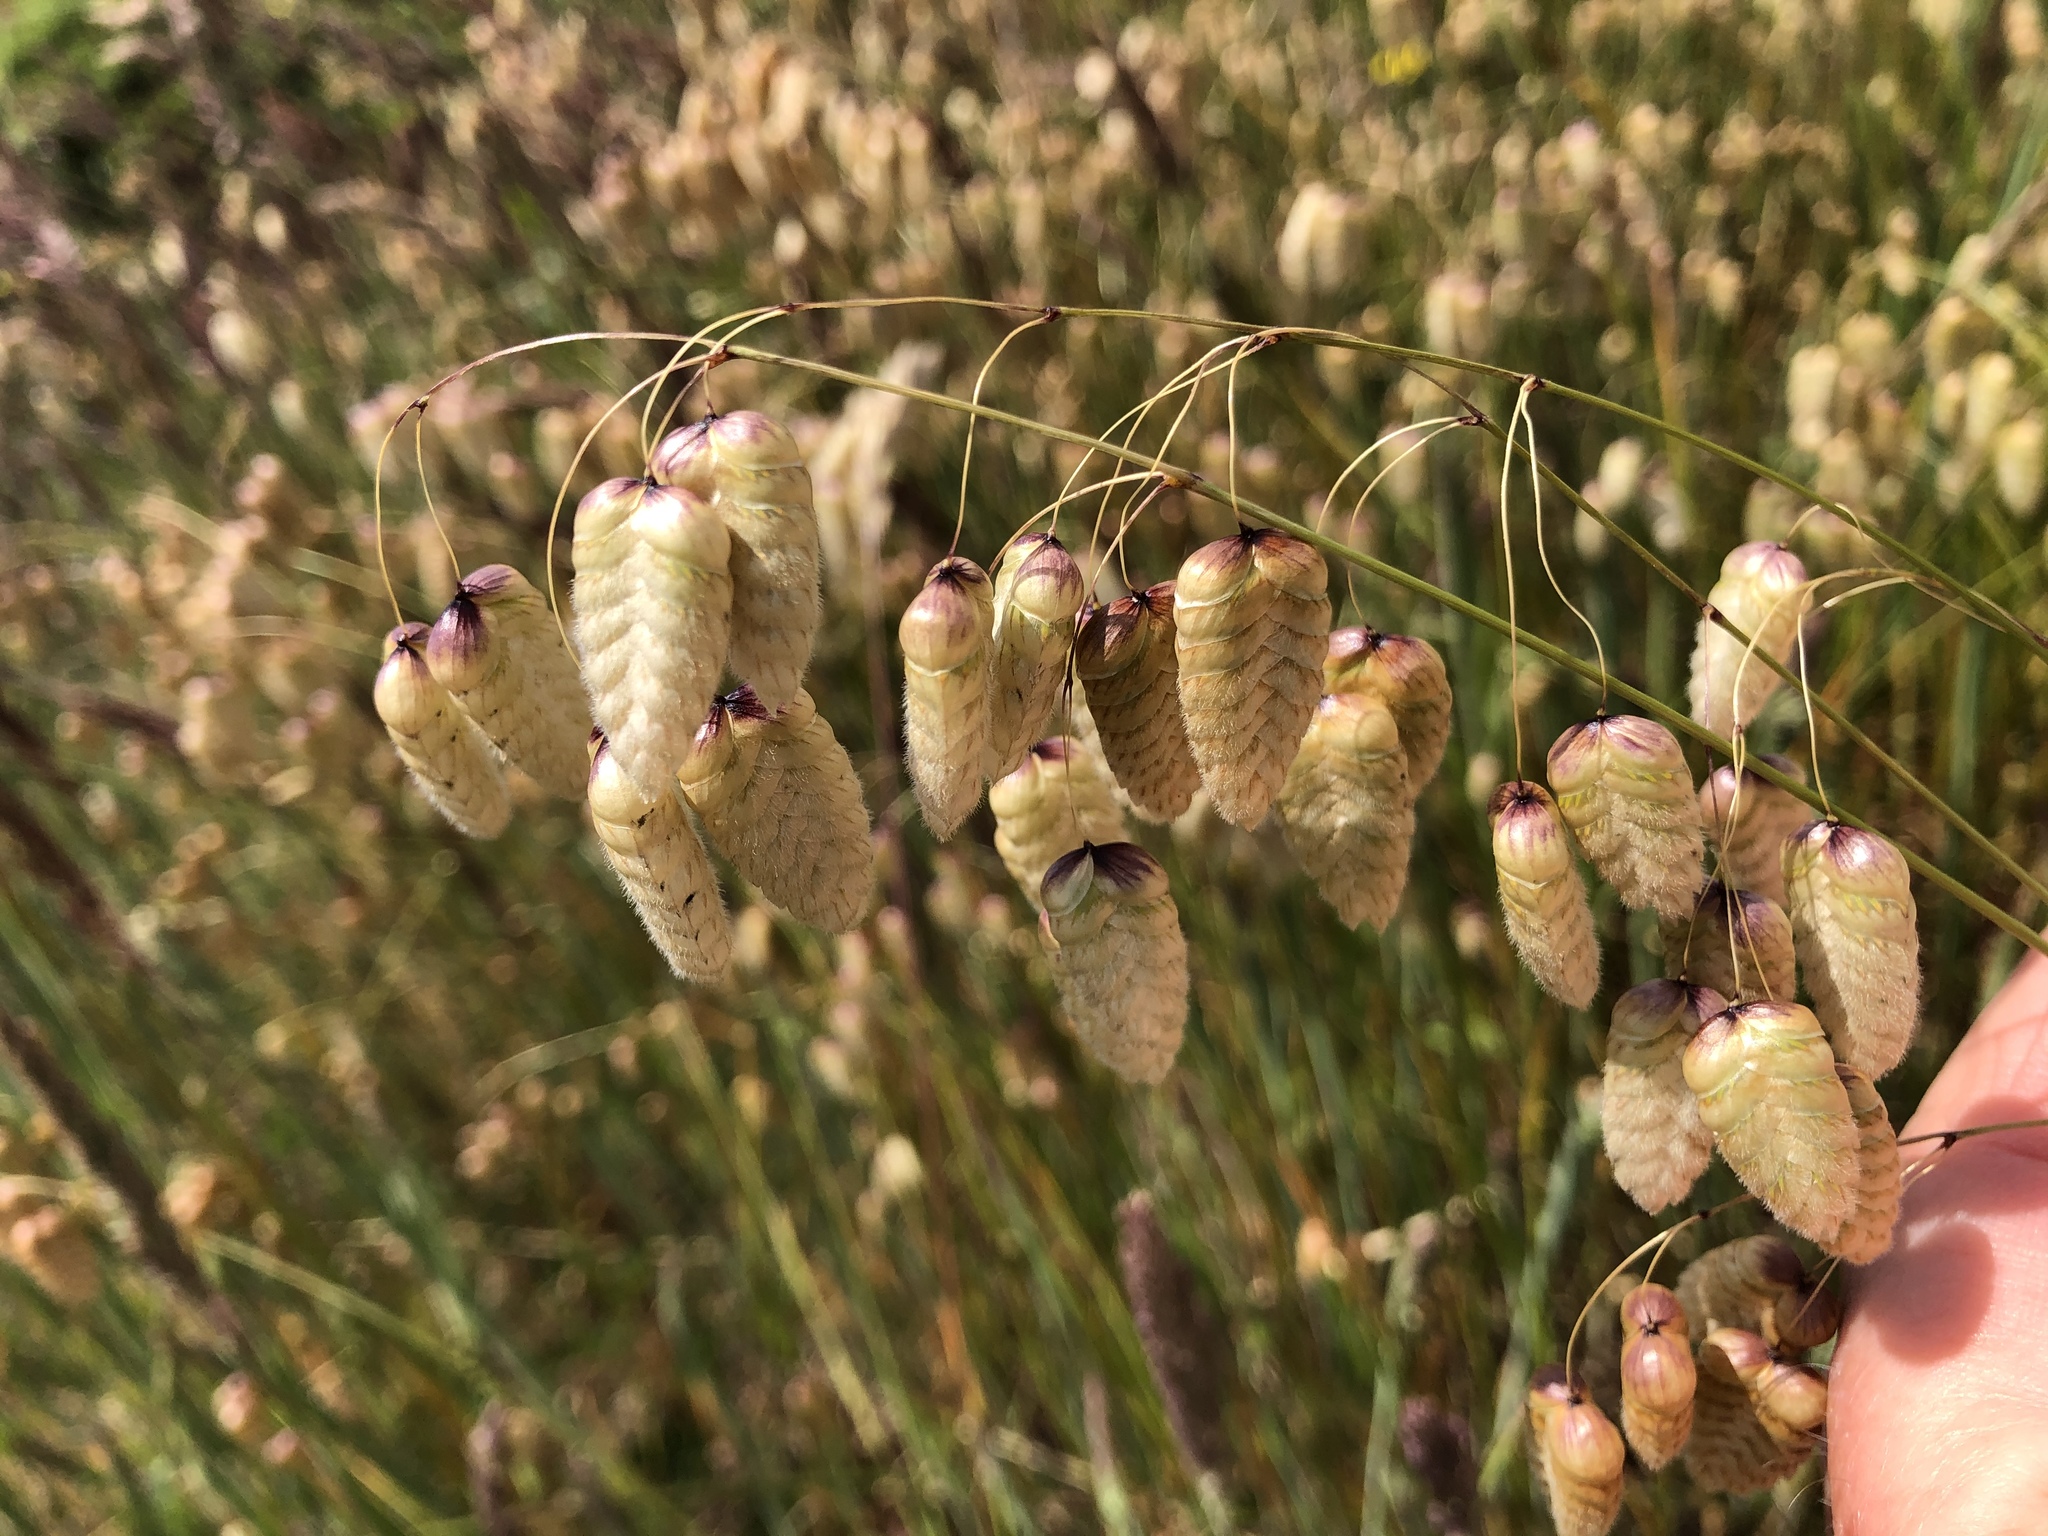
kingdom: Plantae
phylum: Tracheophyta
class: Liliopsida
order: Poales
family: Poaceae
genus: Briza
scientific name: Briza maxima
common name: Big quakinggrass
